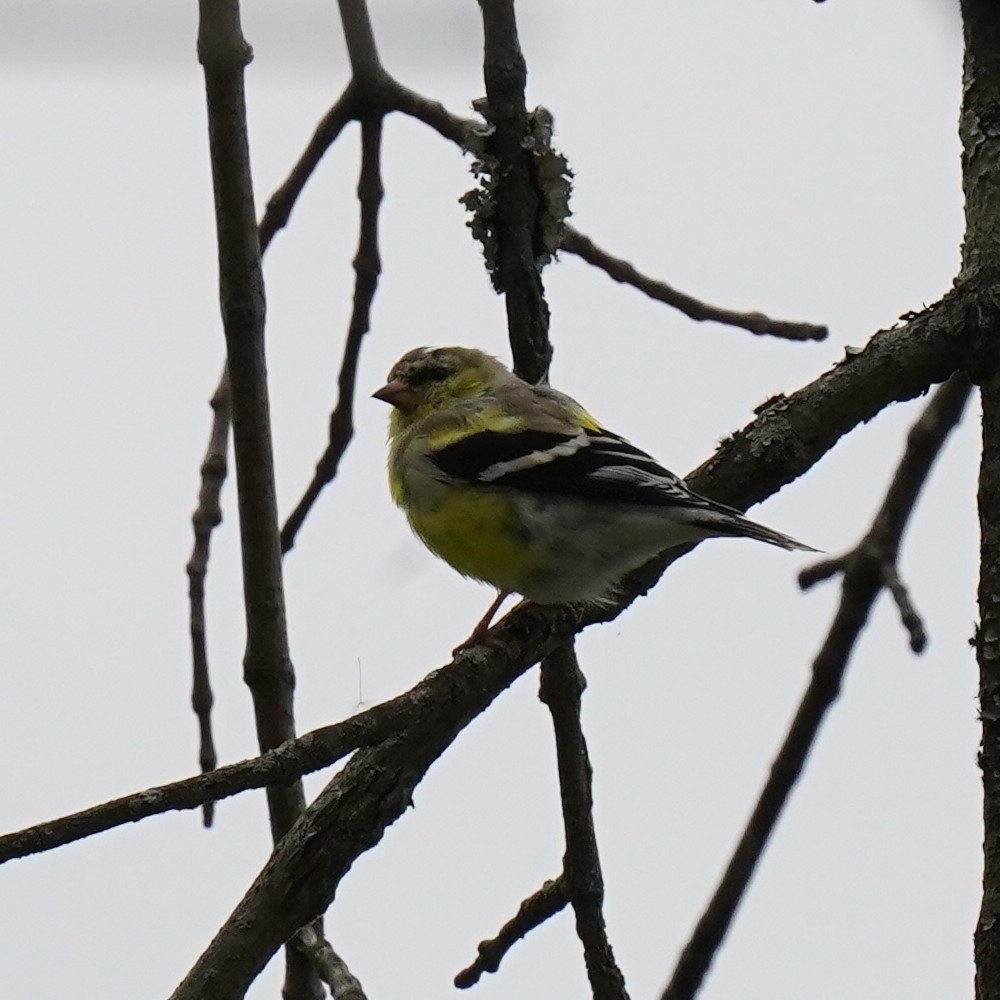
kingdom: Animalia
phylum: Chordata
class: Aves
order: Passeriformes
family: Fringillidae
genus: Spinus
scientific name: Spinus tristis
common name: American goldfinch
